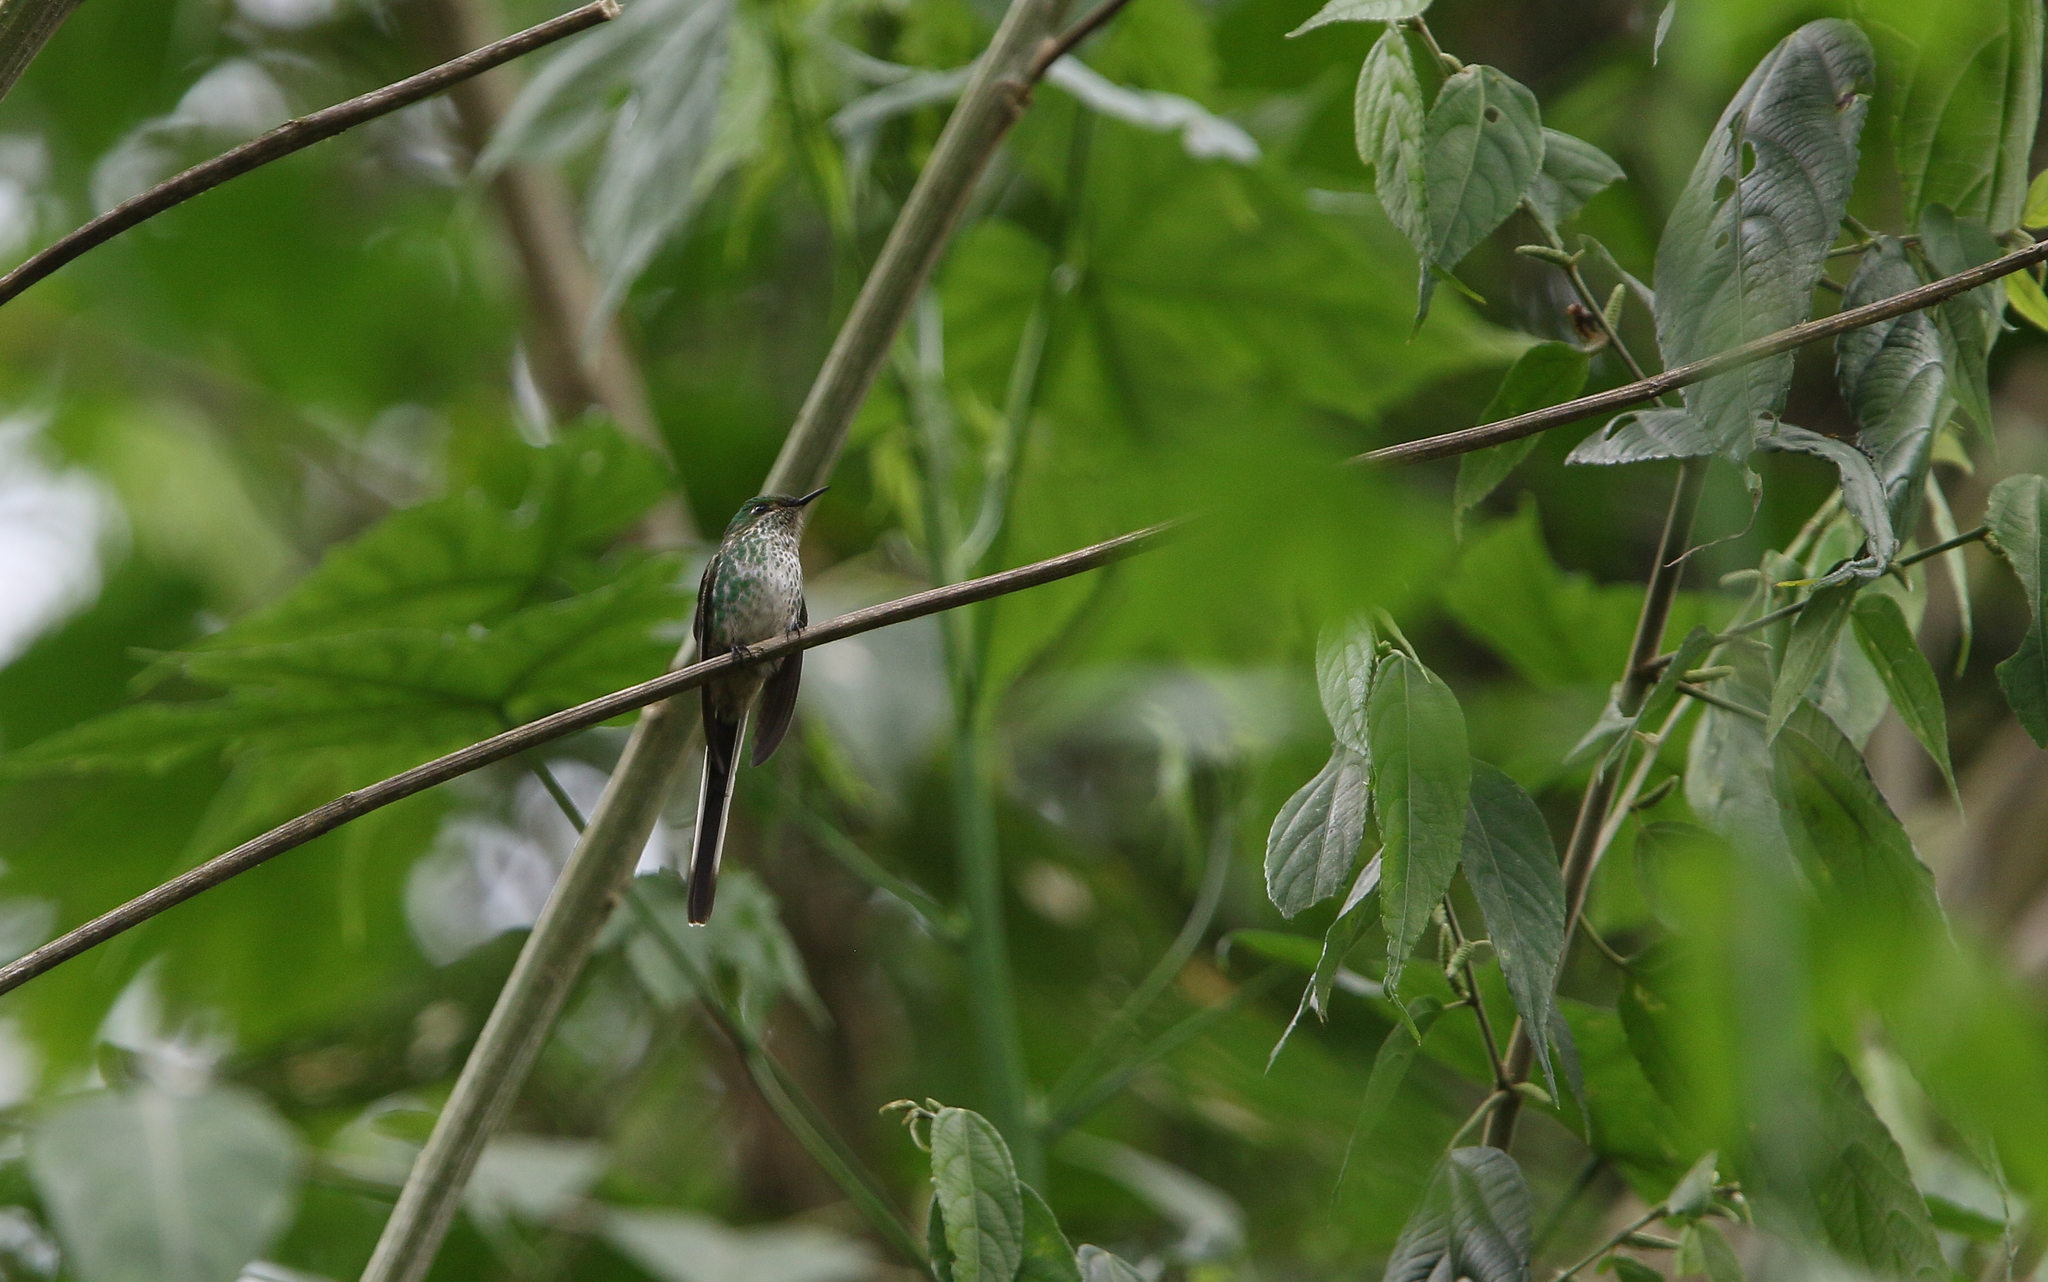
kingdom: Animalia
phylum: Chordata
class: Aves
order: Apodiformes
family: Trochilidae
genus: Lesbia
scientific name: Lesbia nuna
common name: Green-tailed trainbearer
